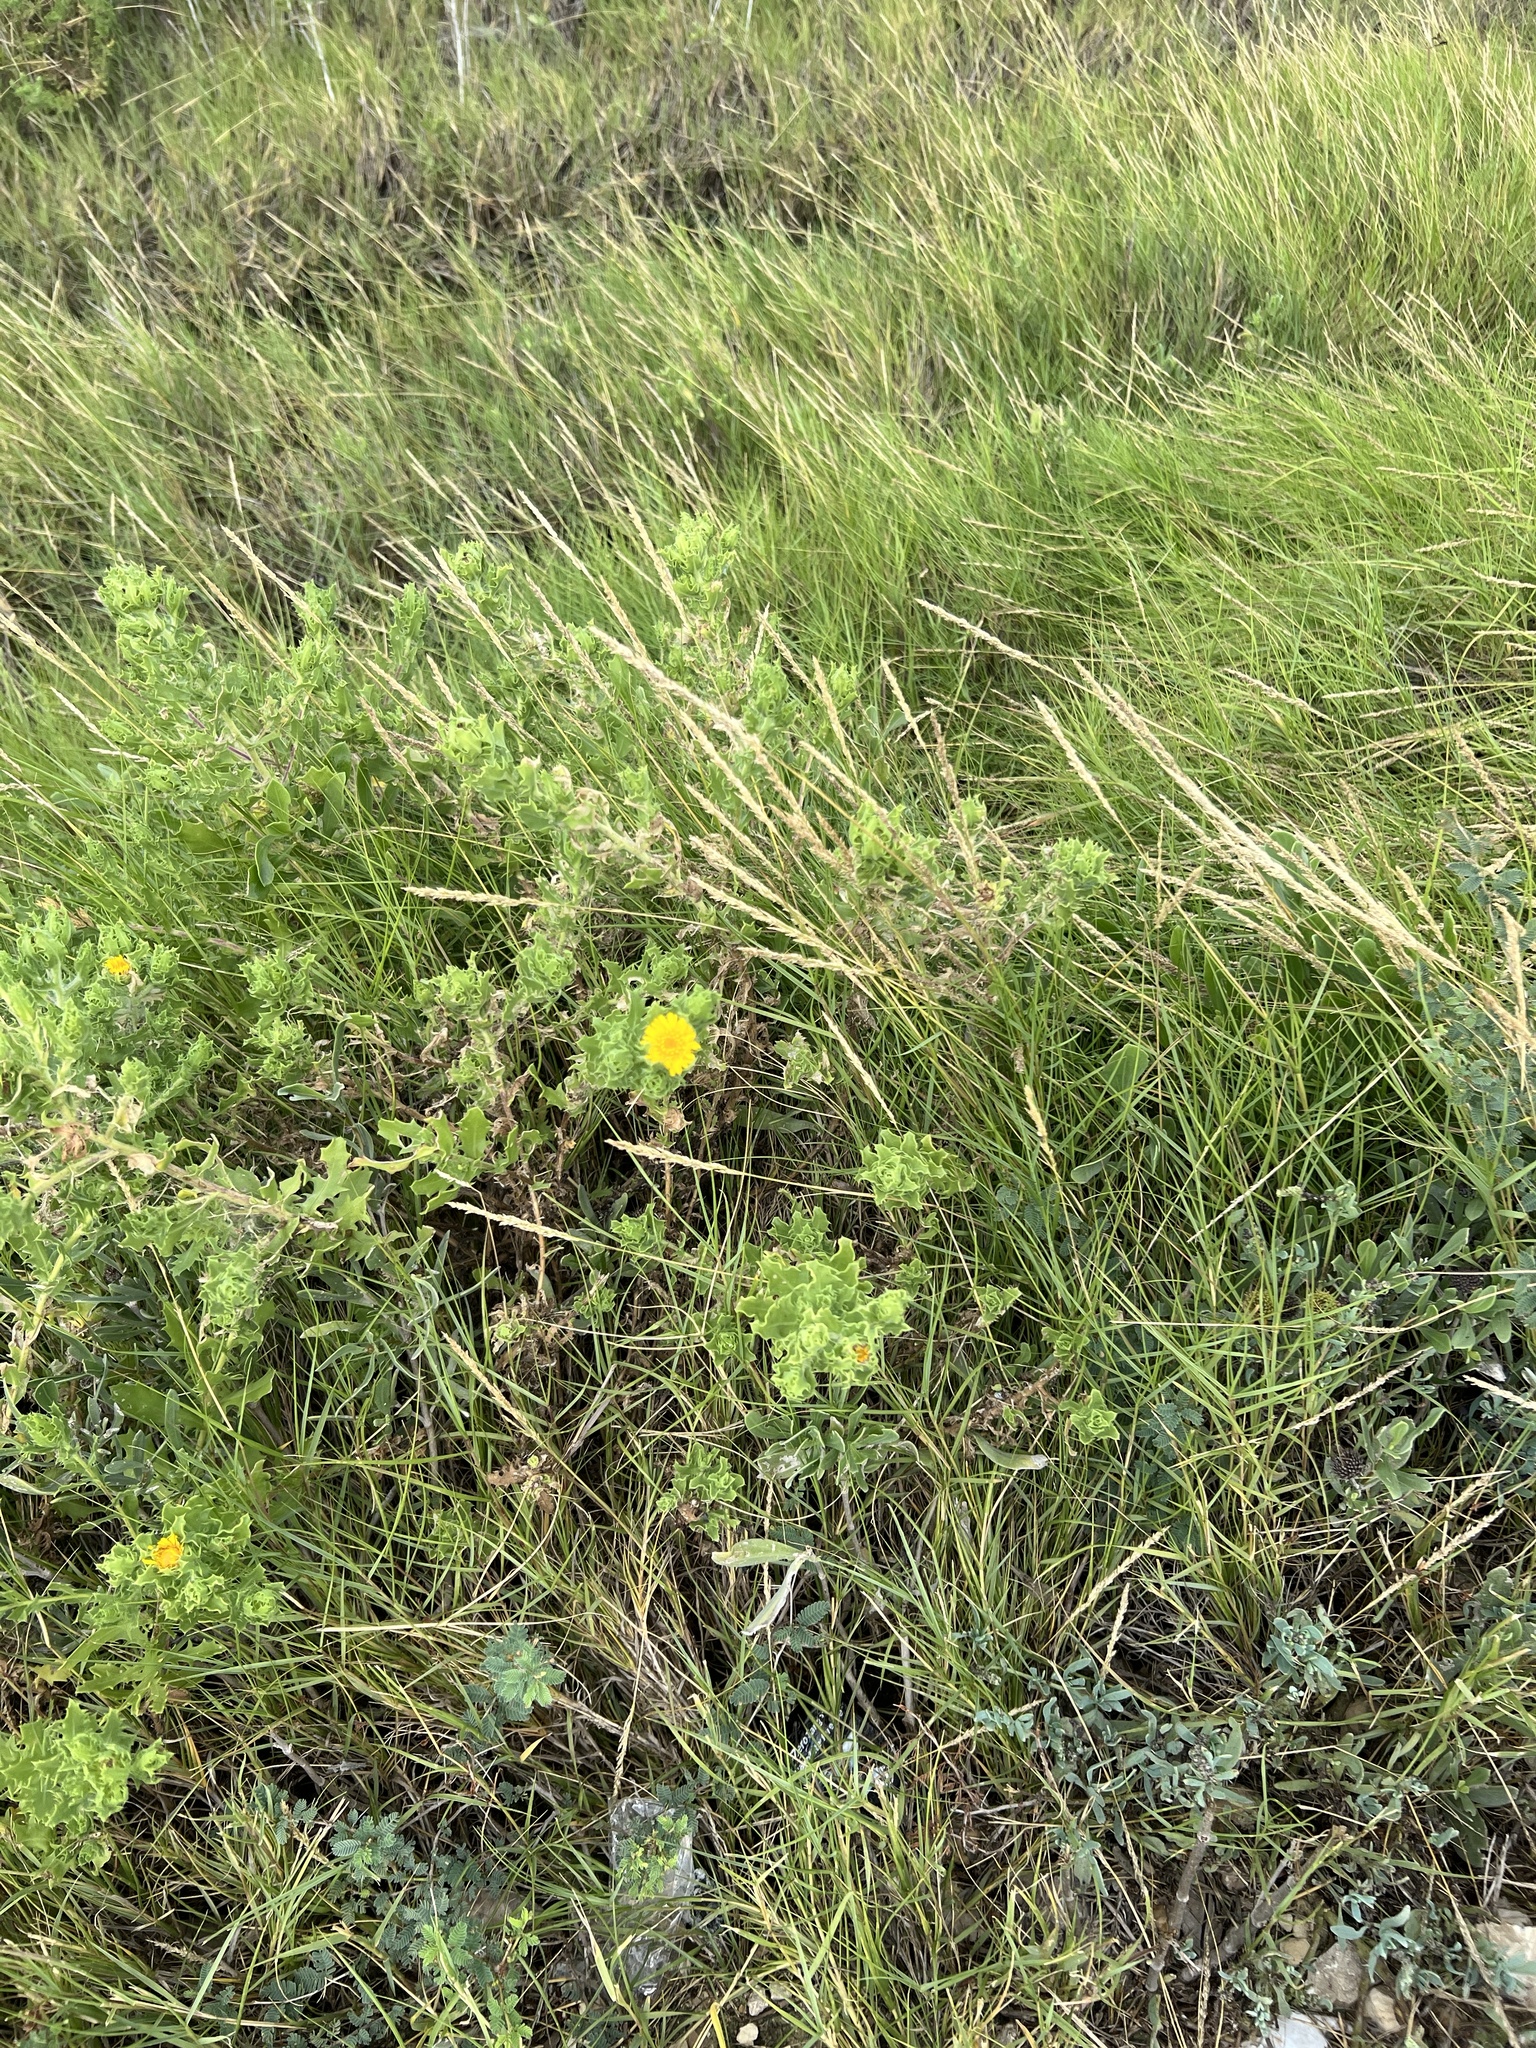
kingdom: Plantae
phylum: Tracheophyta
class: Magnoliopsida
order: Asterales
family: Asteraceae
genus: Rayjacksonia
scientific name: Rayjacksonia phyllocephala
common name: Gulf coast camphor daisy
